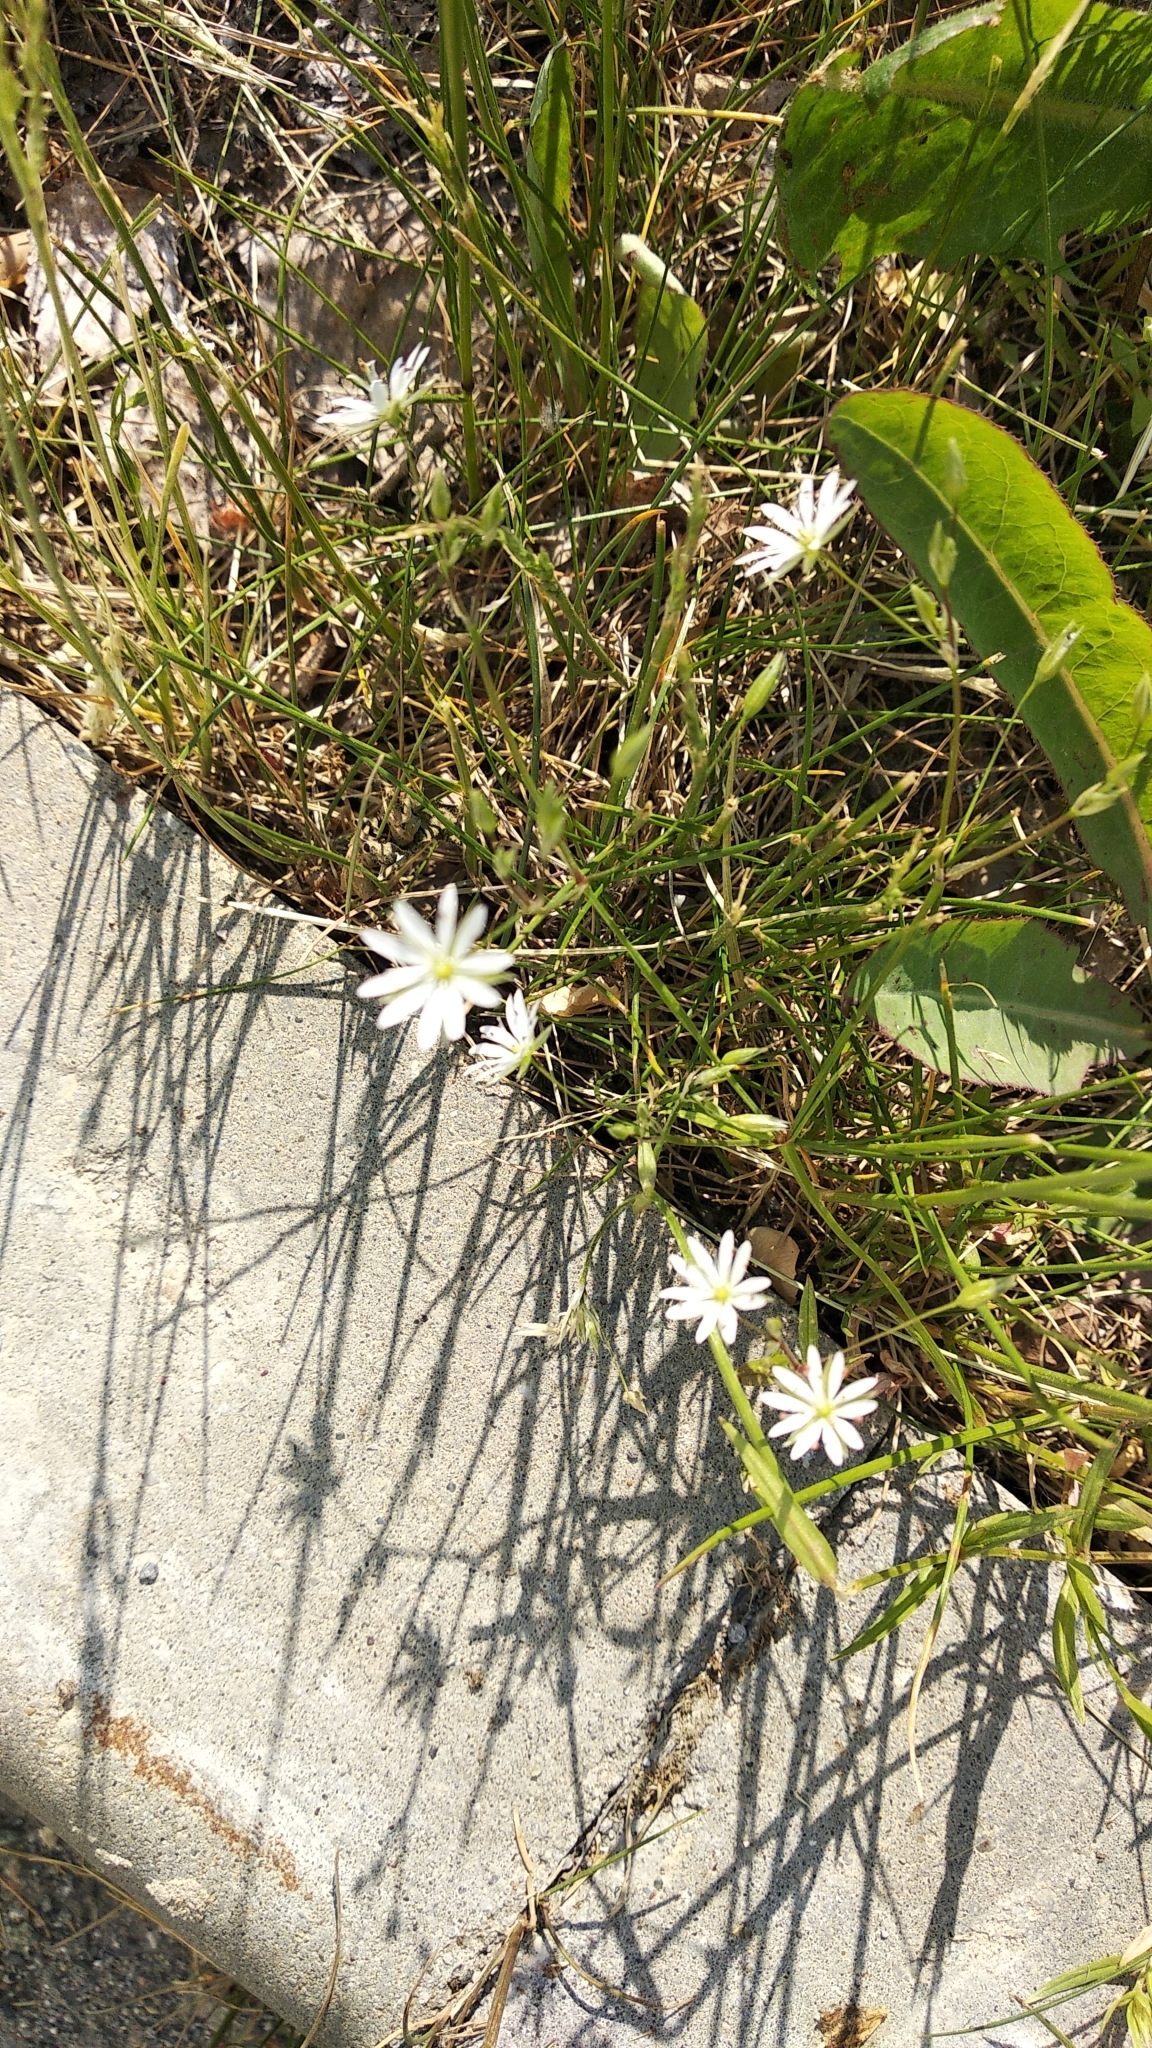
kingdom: Plantae
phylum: Tracheophyta
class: Magnoliopsida
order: Caryophyllales
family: Caryophyllaceae
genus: Stellaria
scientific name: Stellaria graminea
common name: Grass-like starwort
